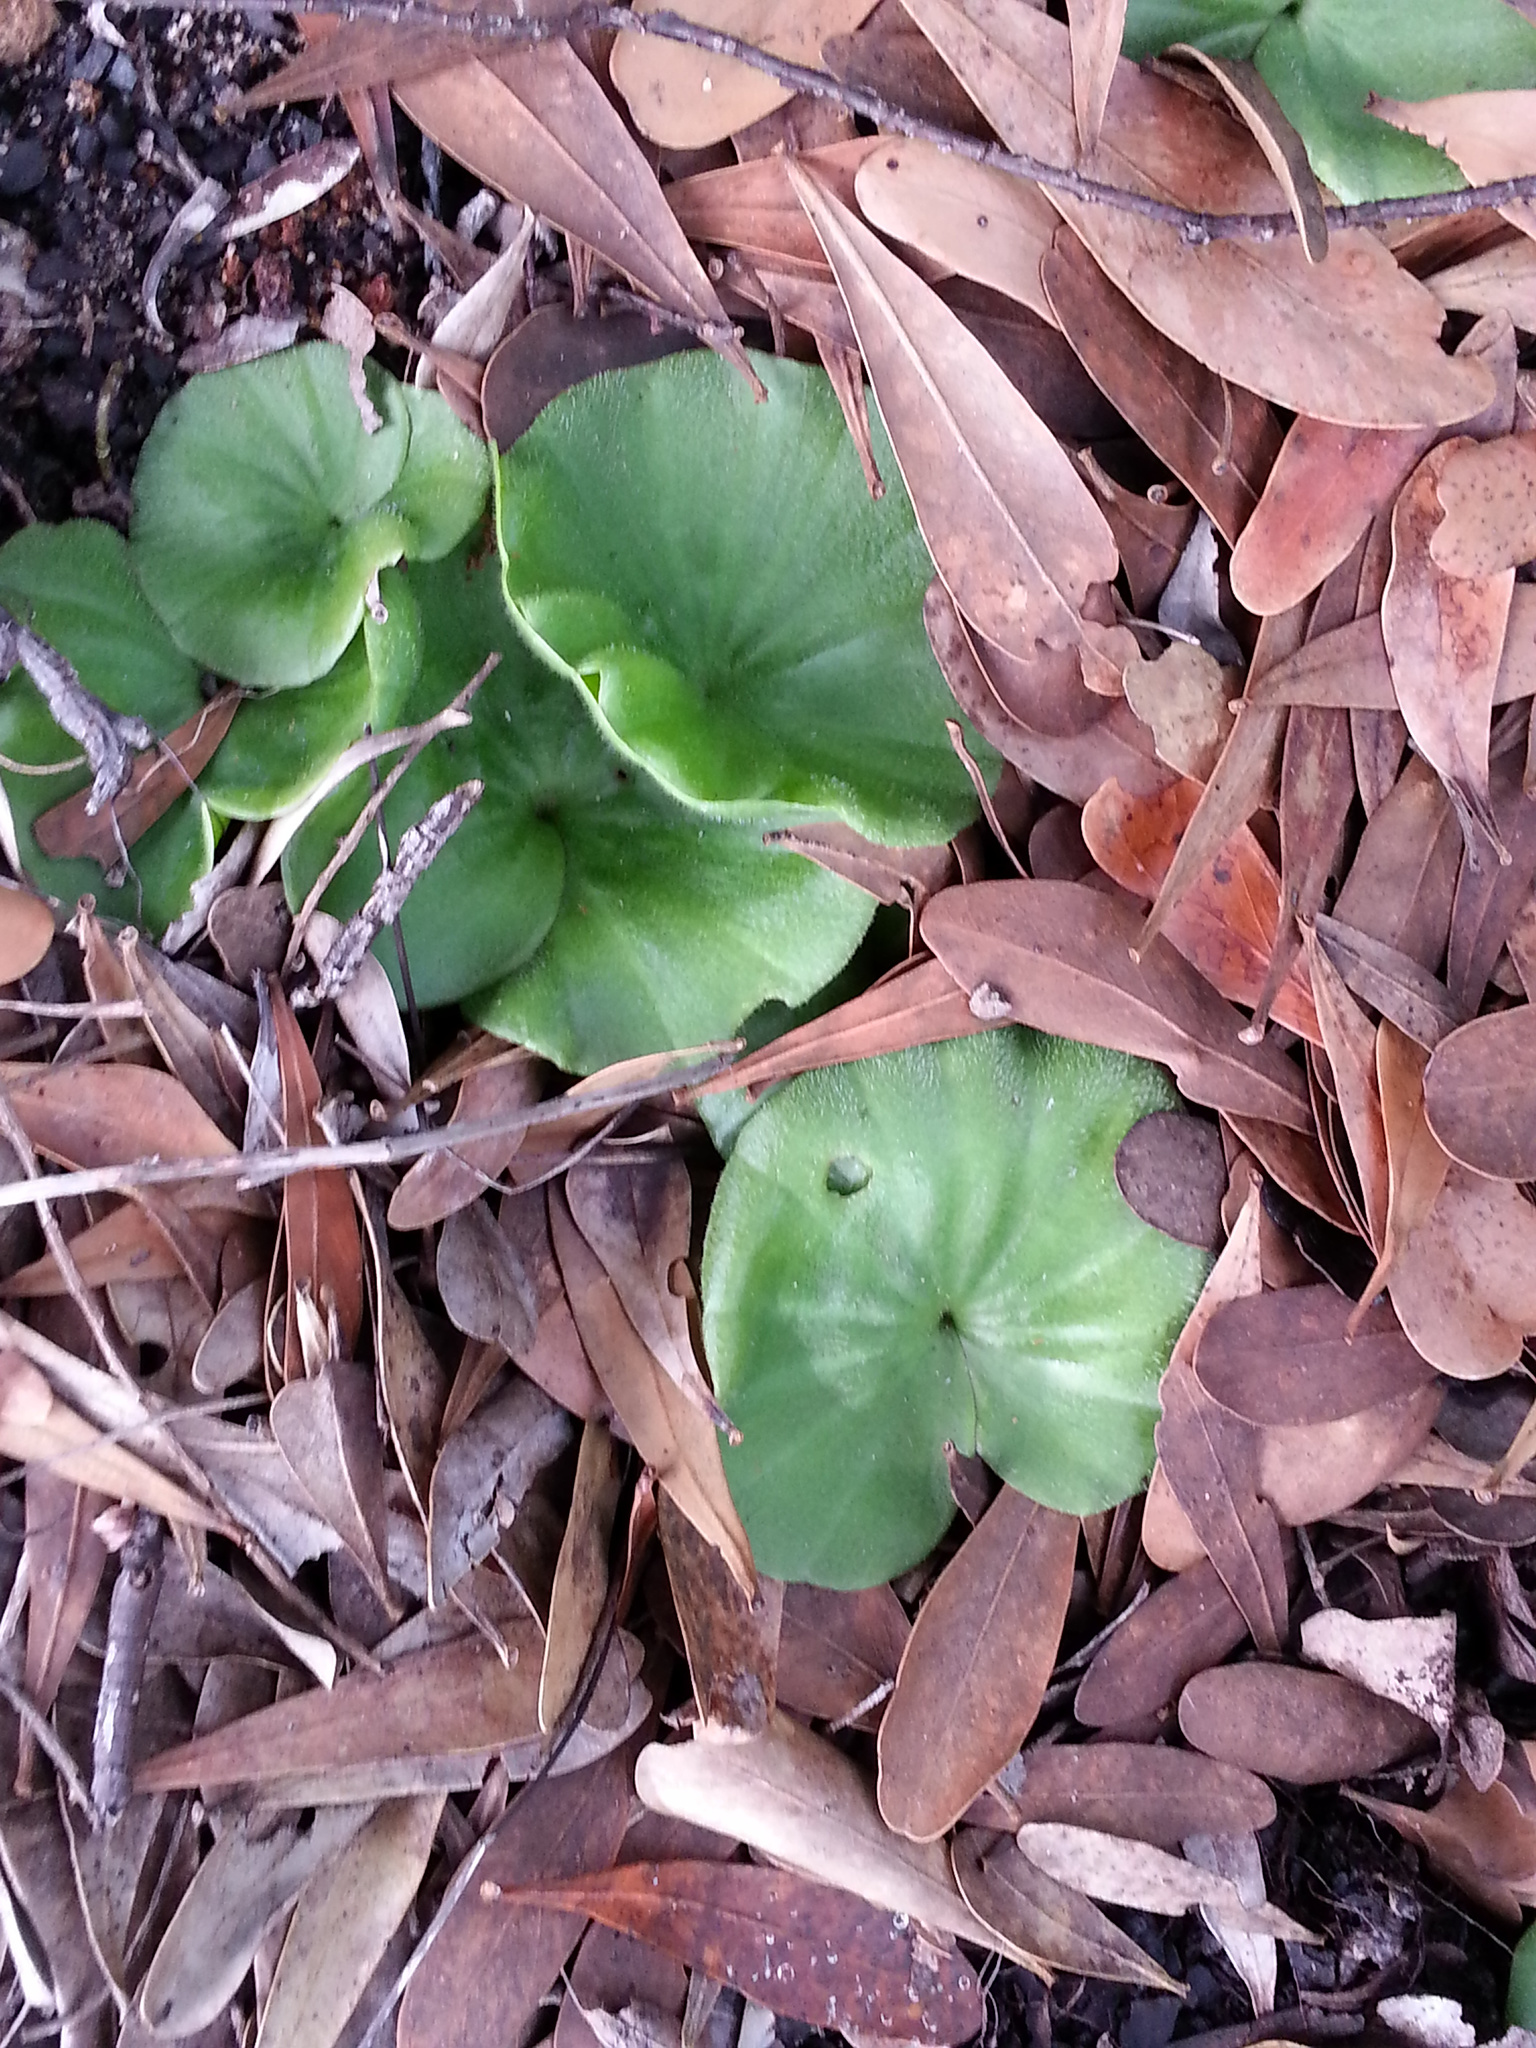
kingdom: Plantae
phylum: Tracheophyta
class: Liliopsida
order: Asparagales
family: Orchidaceae
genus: Nervilia
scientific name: Nervilia simplex
